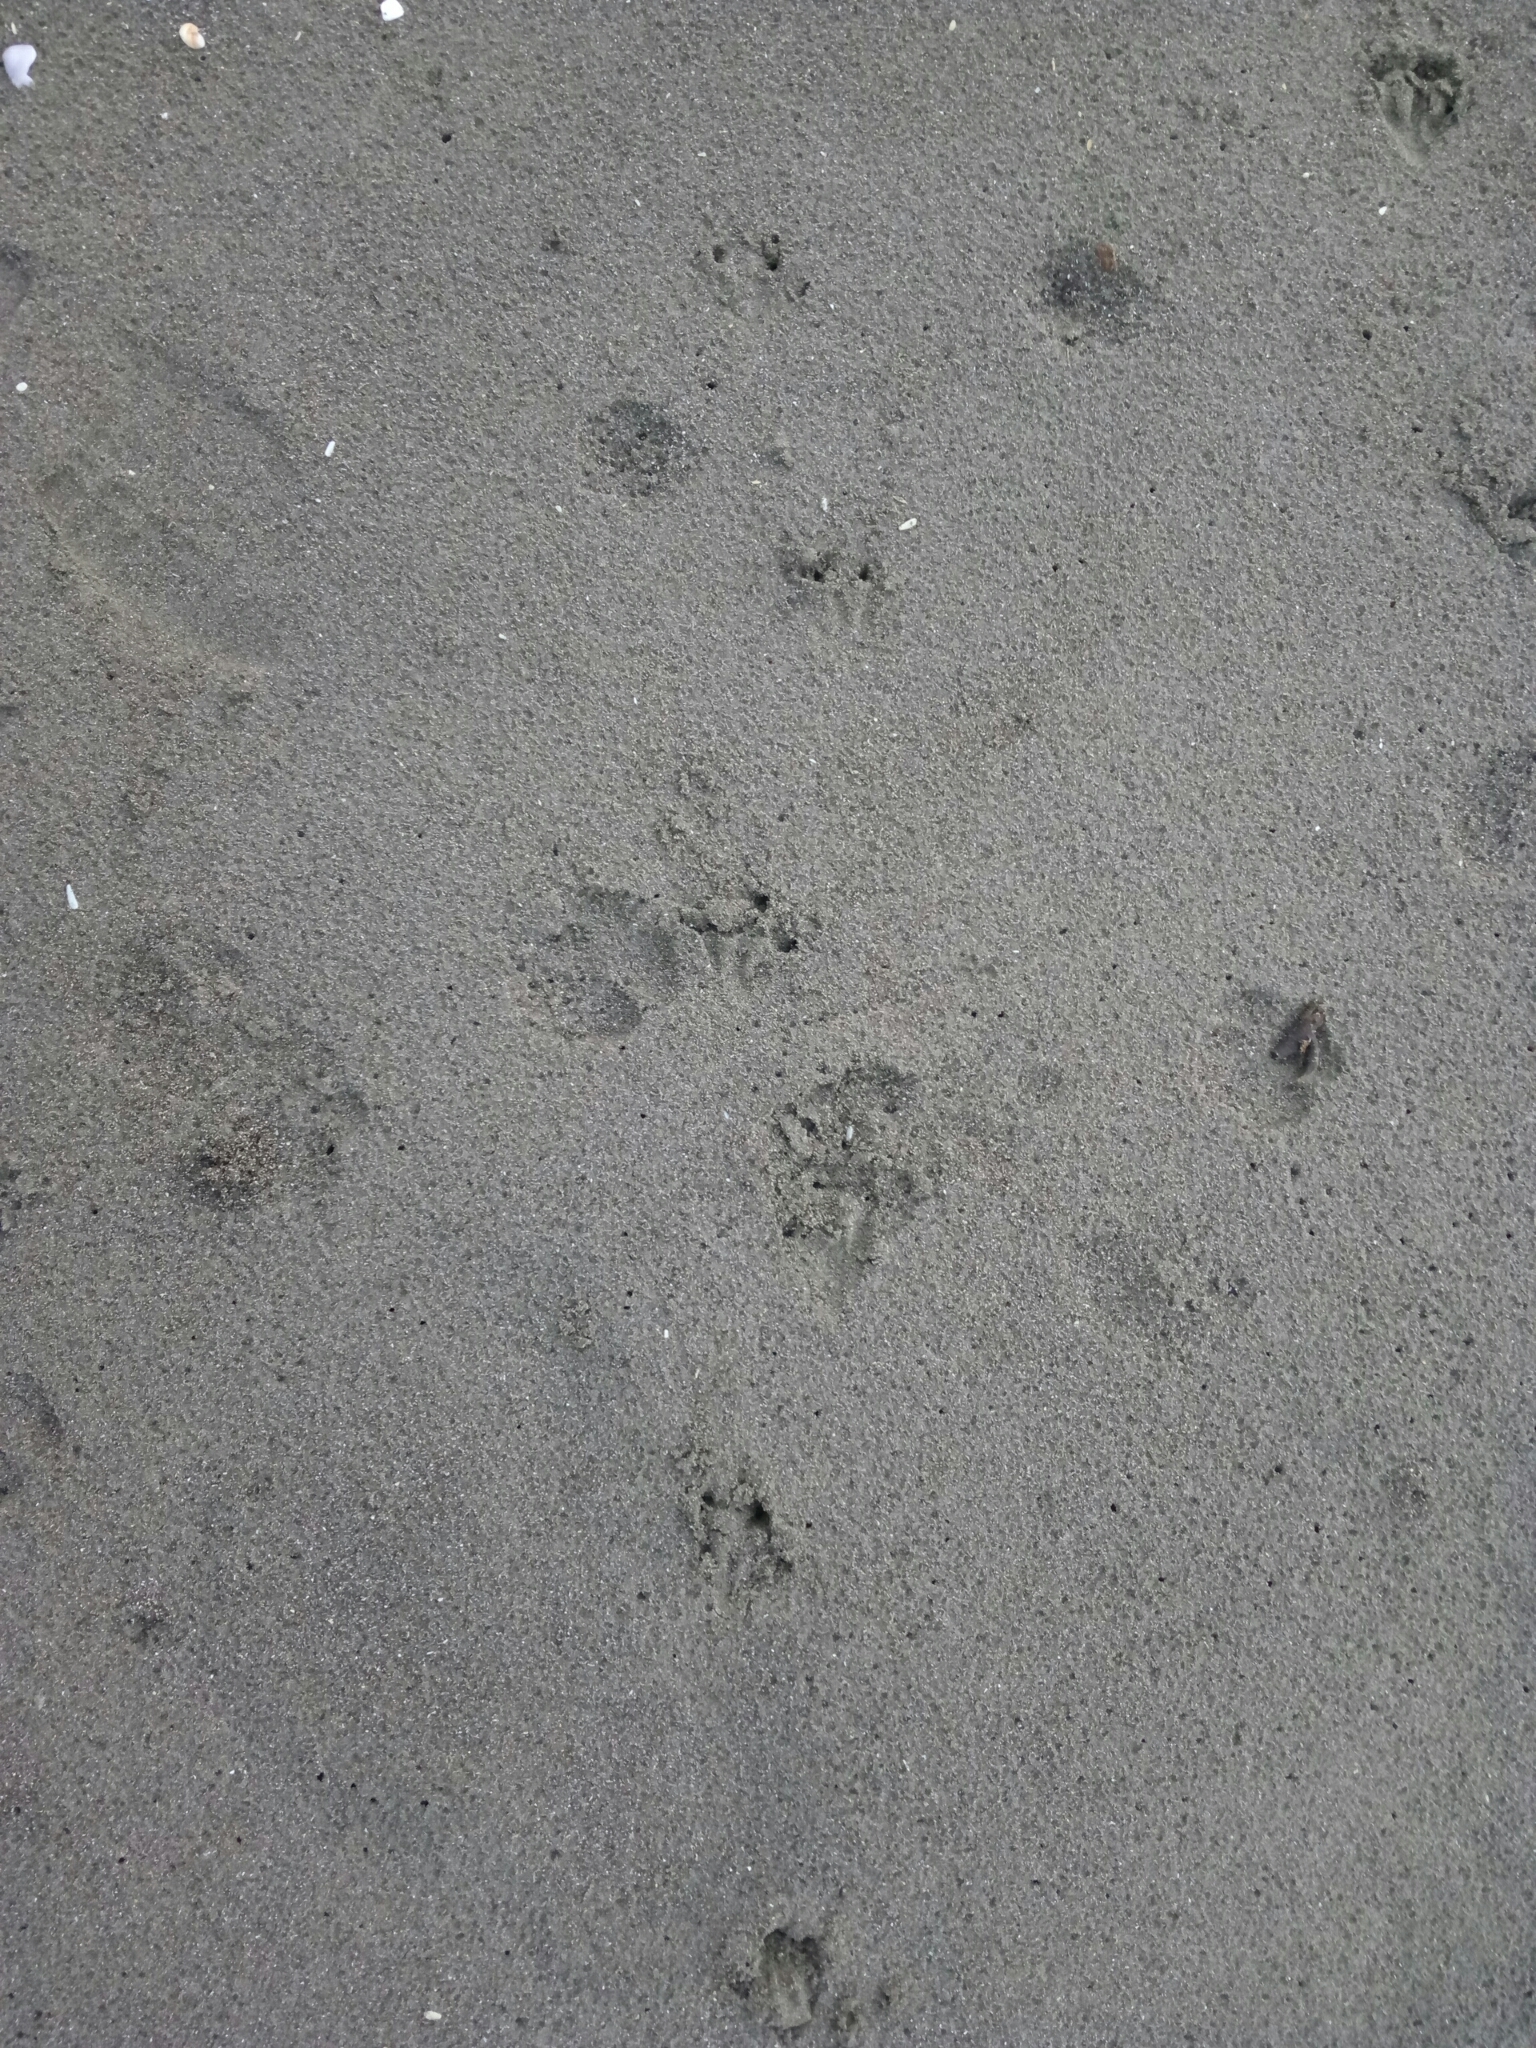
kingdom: Animalia
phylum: Chordata
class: Aves
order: Sphenisciformes
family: Spheniscidae
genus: Eudyptula
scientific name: Eudyptula minor
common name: Little penguin
